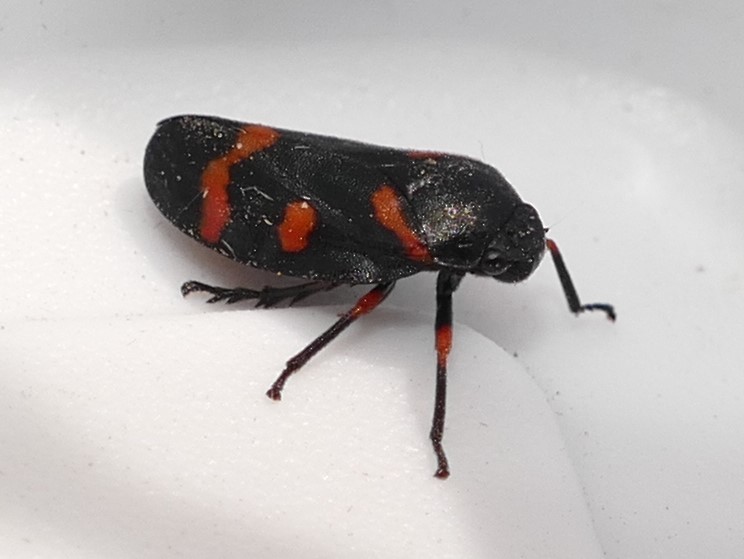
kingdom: Animalia
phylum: Arthropoda
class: Insecta
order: Hemiptera
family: Cercopidae
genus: Cercopis
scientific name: Cercopis intermedia
